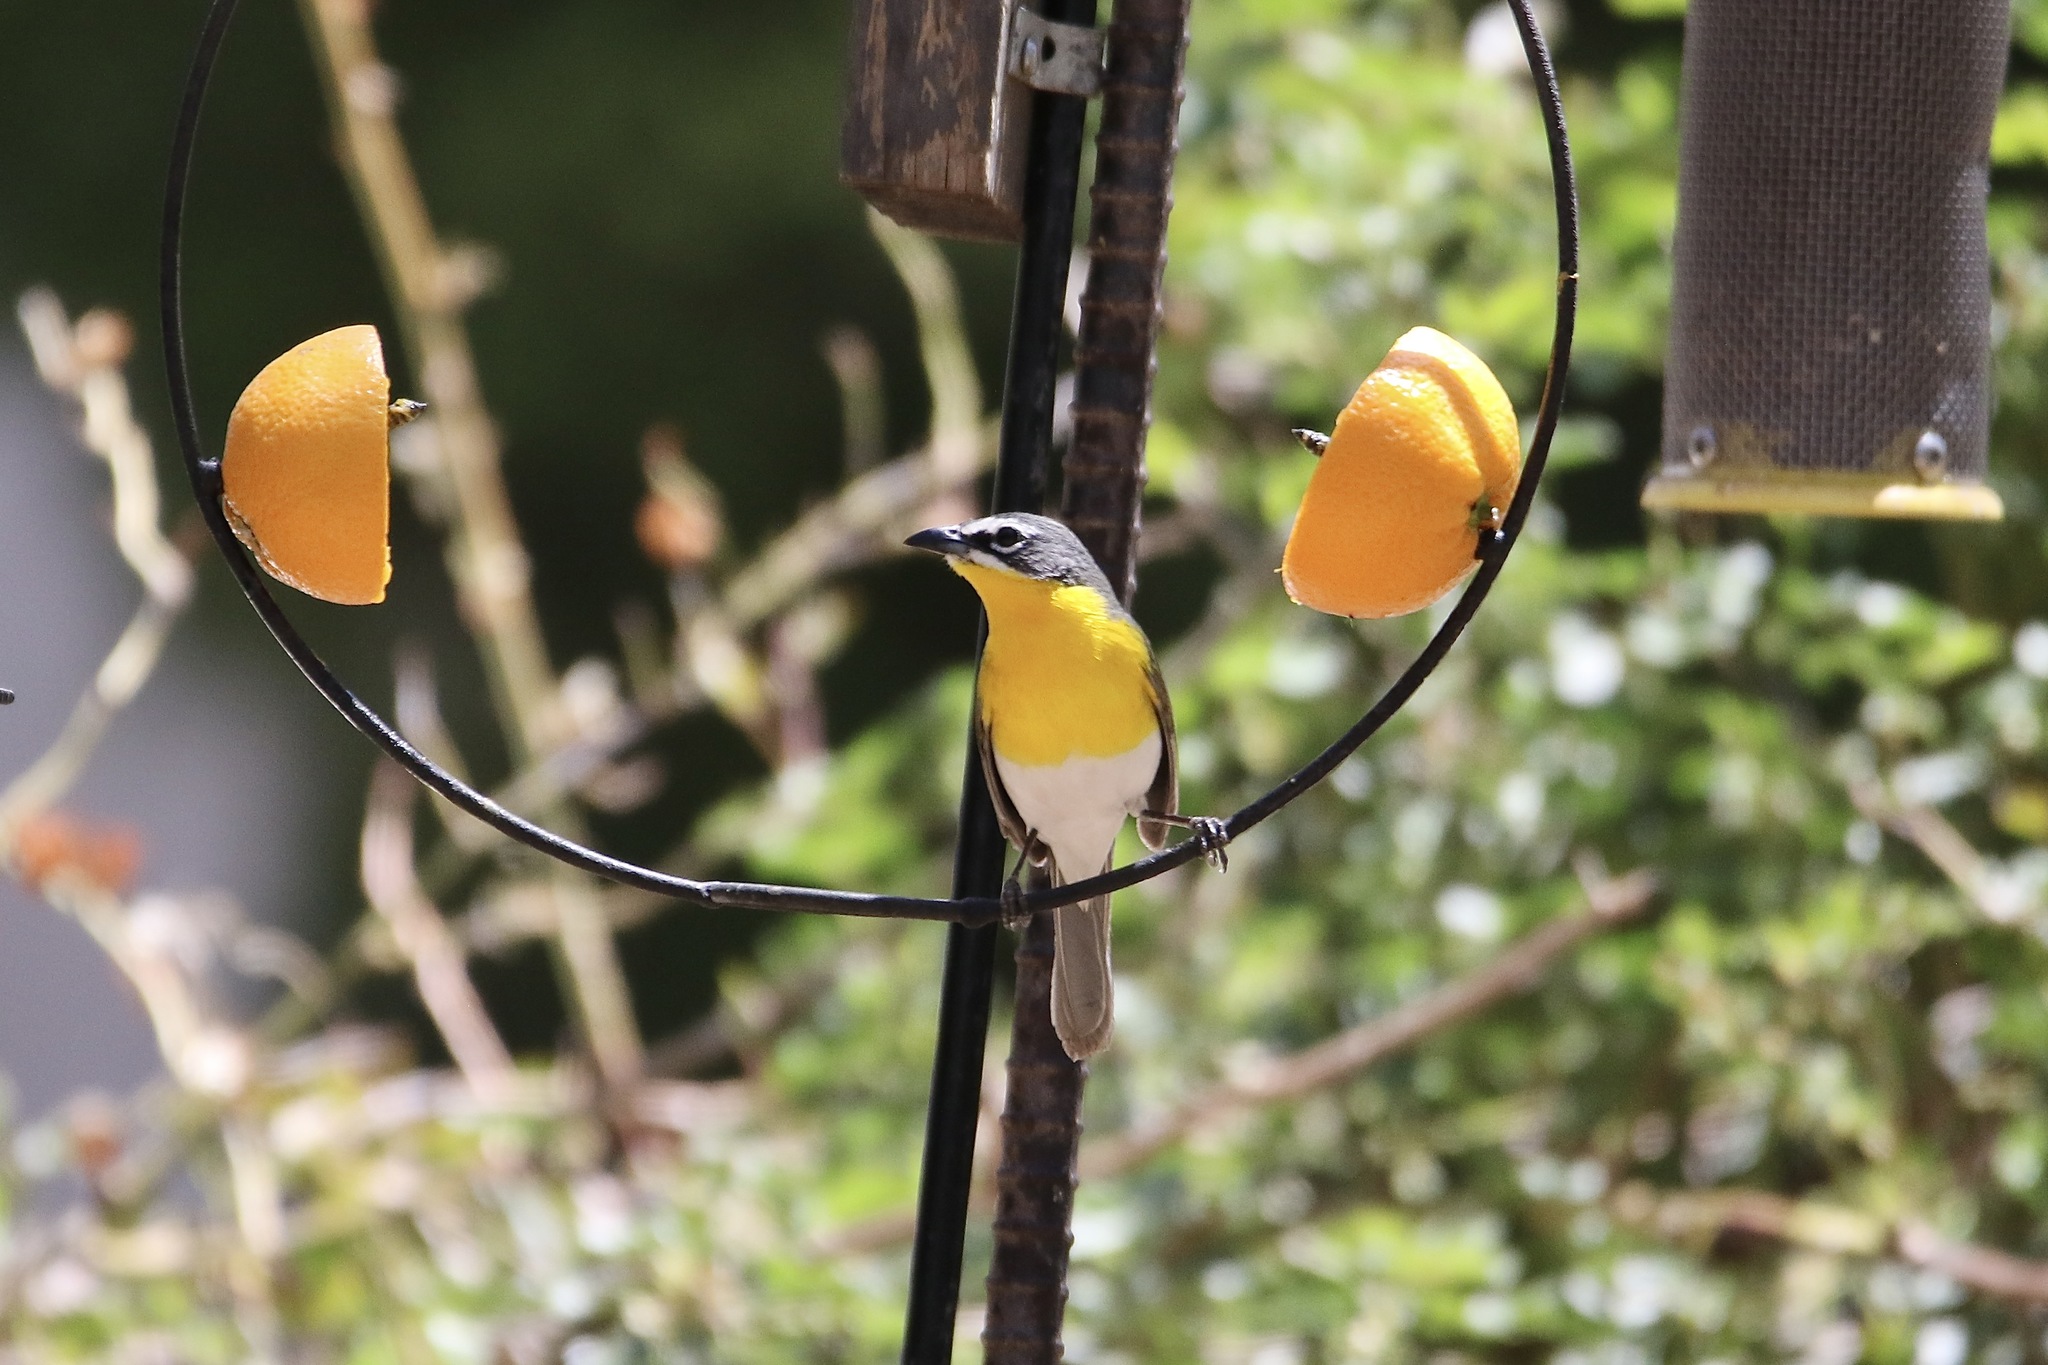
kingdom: Animalia
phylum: Chordata
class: Aves
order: Passeriformes
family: Parulidae
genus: Icteria
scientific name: Icteria virens
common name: Yellow-breasted chat
